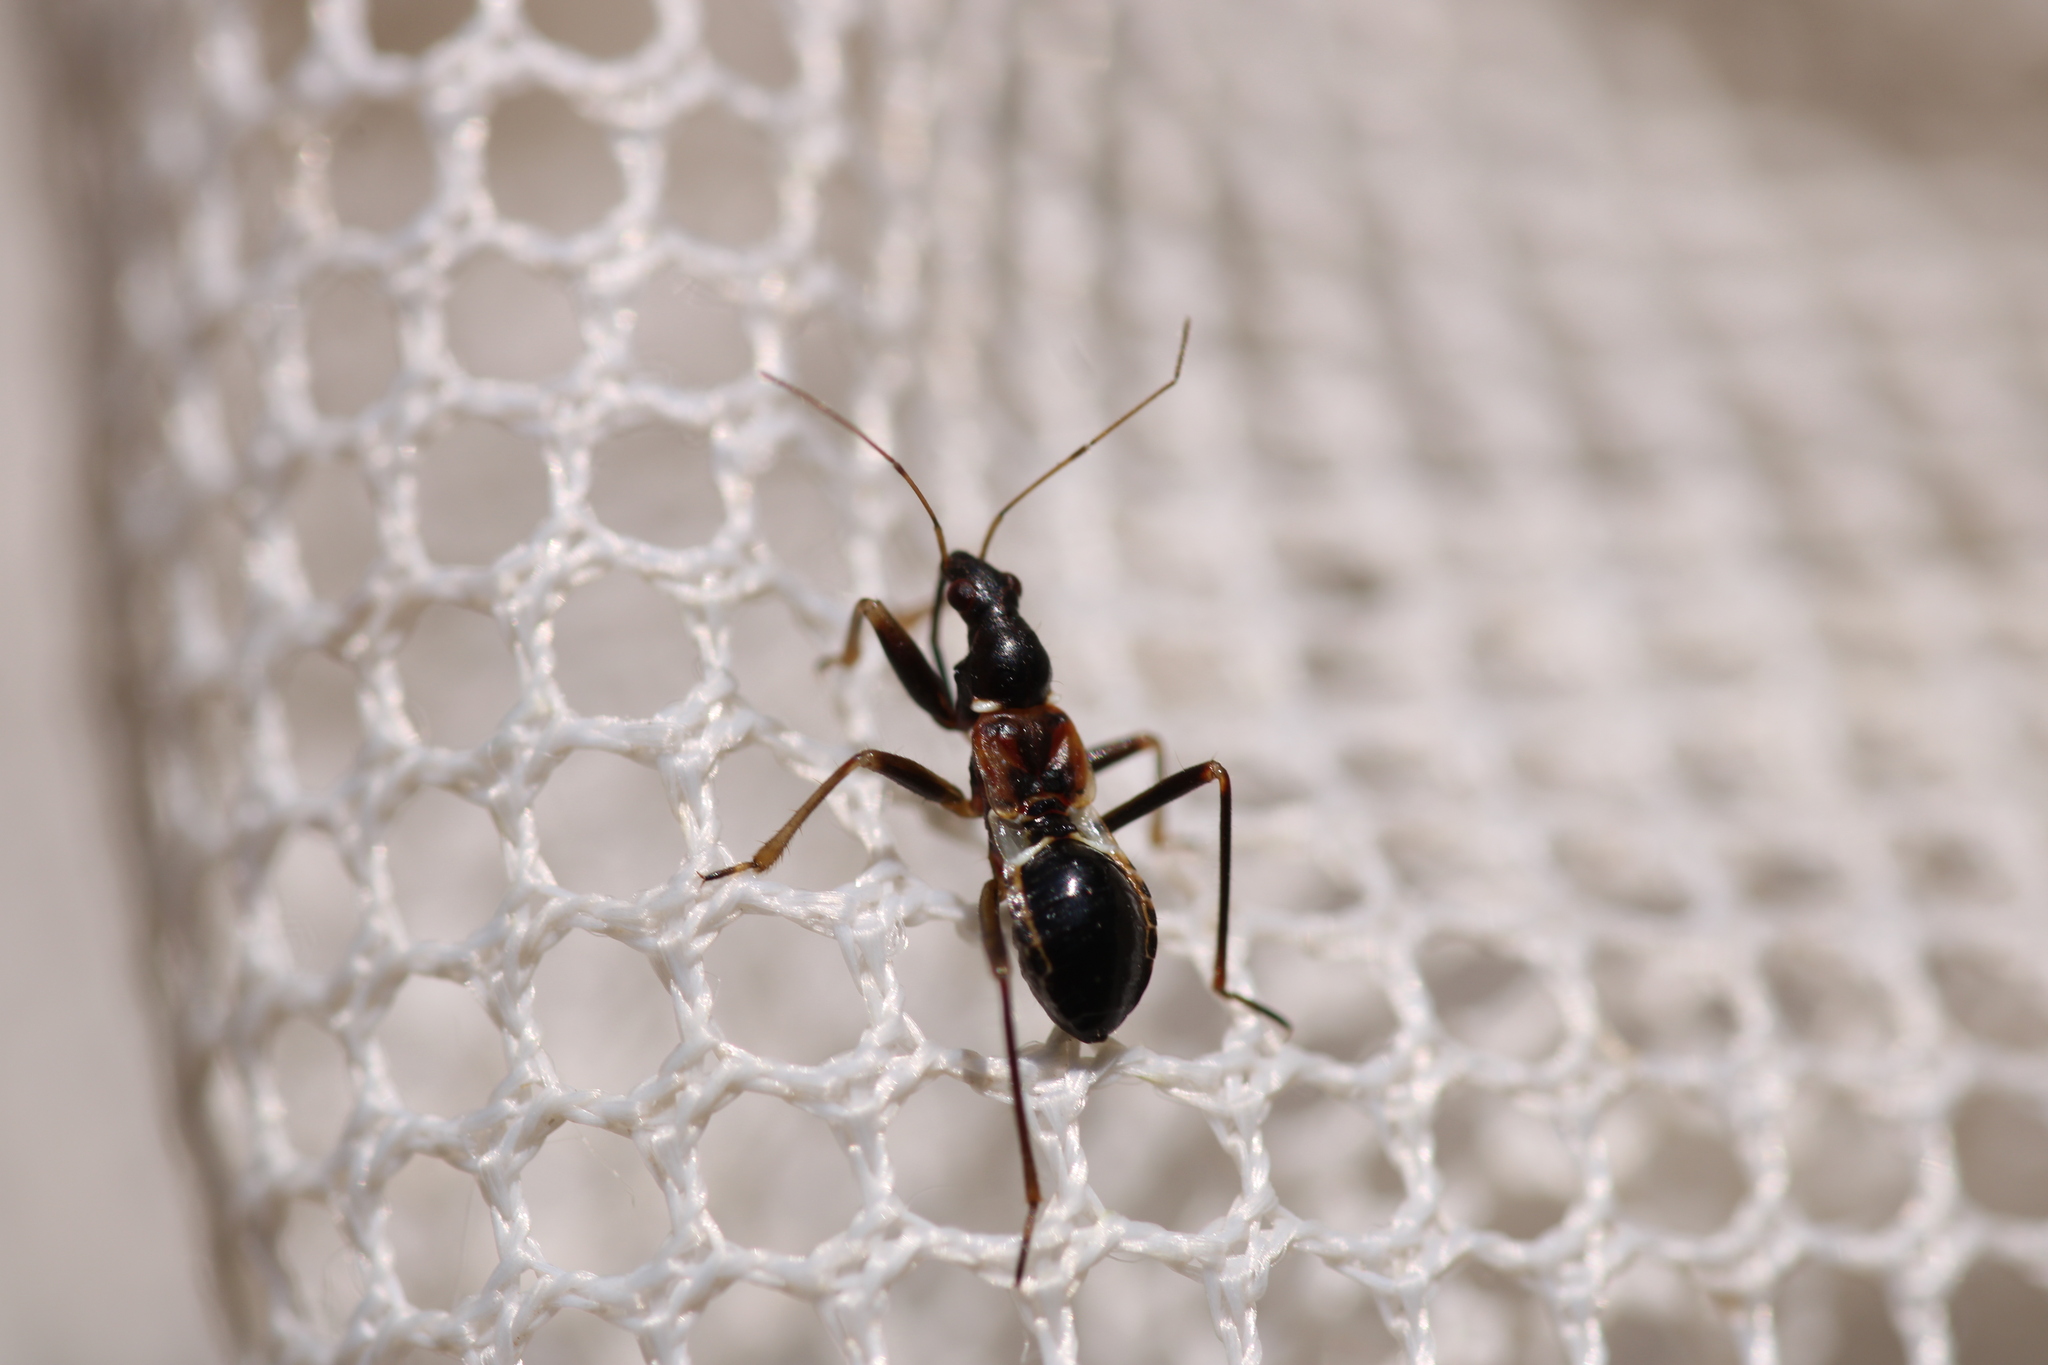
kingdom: Animalia
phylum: Arthropoda
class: Insecta
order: Hemiptera
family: Nabidae
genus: Himacerus
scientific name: Himacerus mirmicoides
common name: Ant damsel bug
